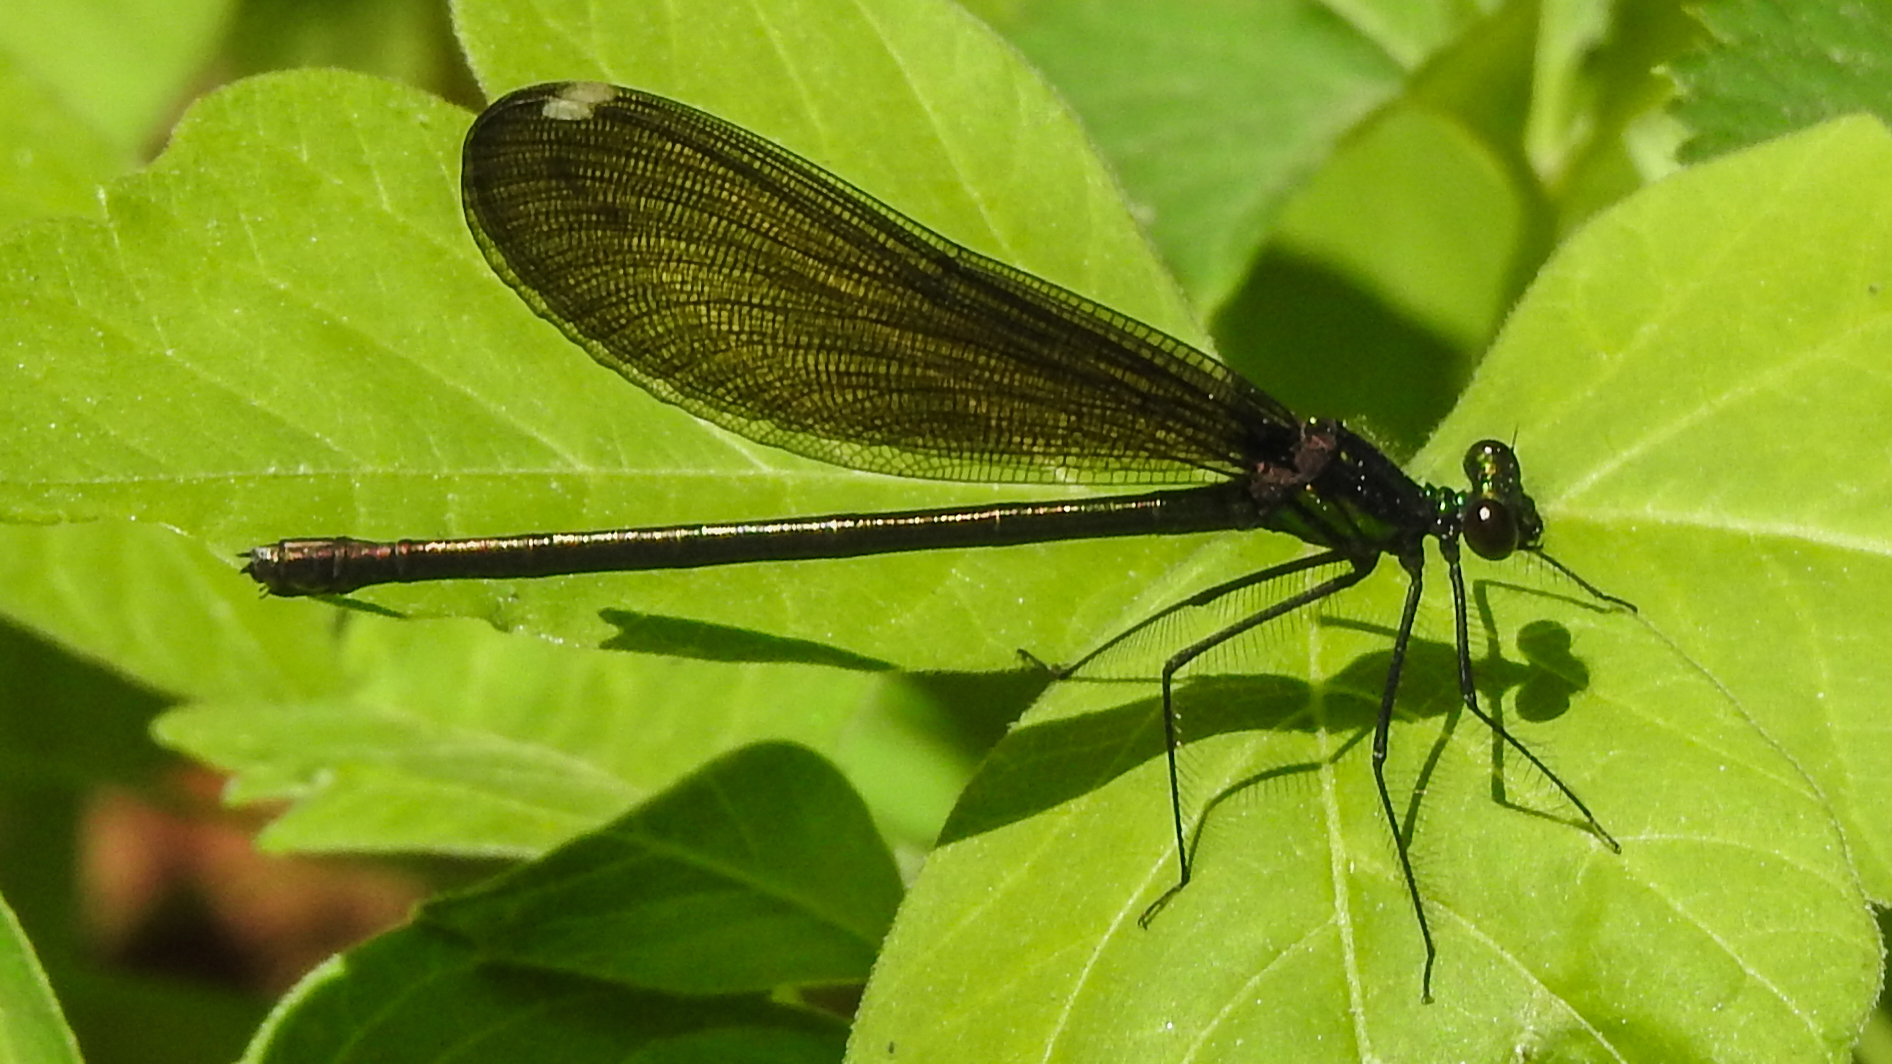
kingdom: Animalia
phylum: Arthropoda
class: Insecta
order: Odonata
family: Calopterygidae
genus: Calopteryx
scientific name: Calopteryx maculata
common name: Ebony jewelwing
